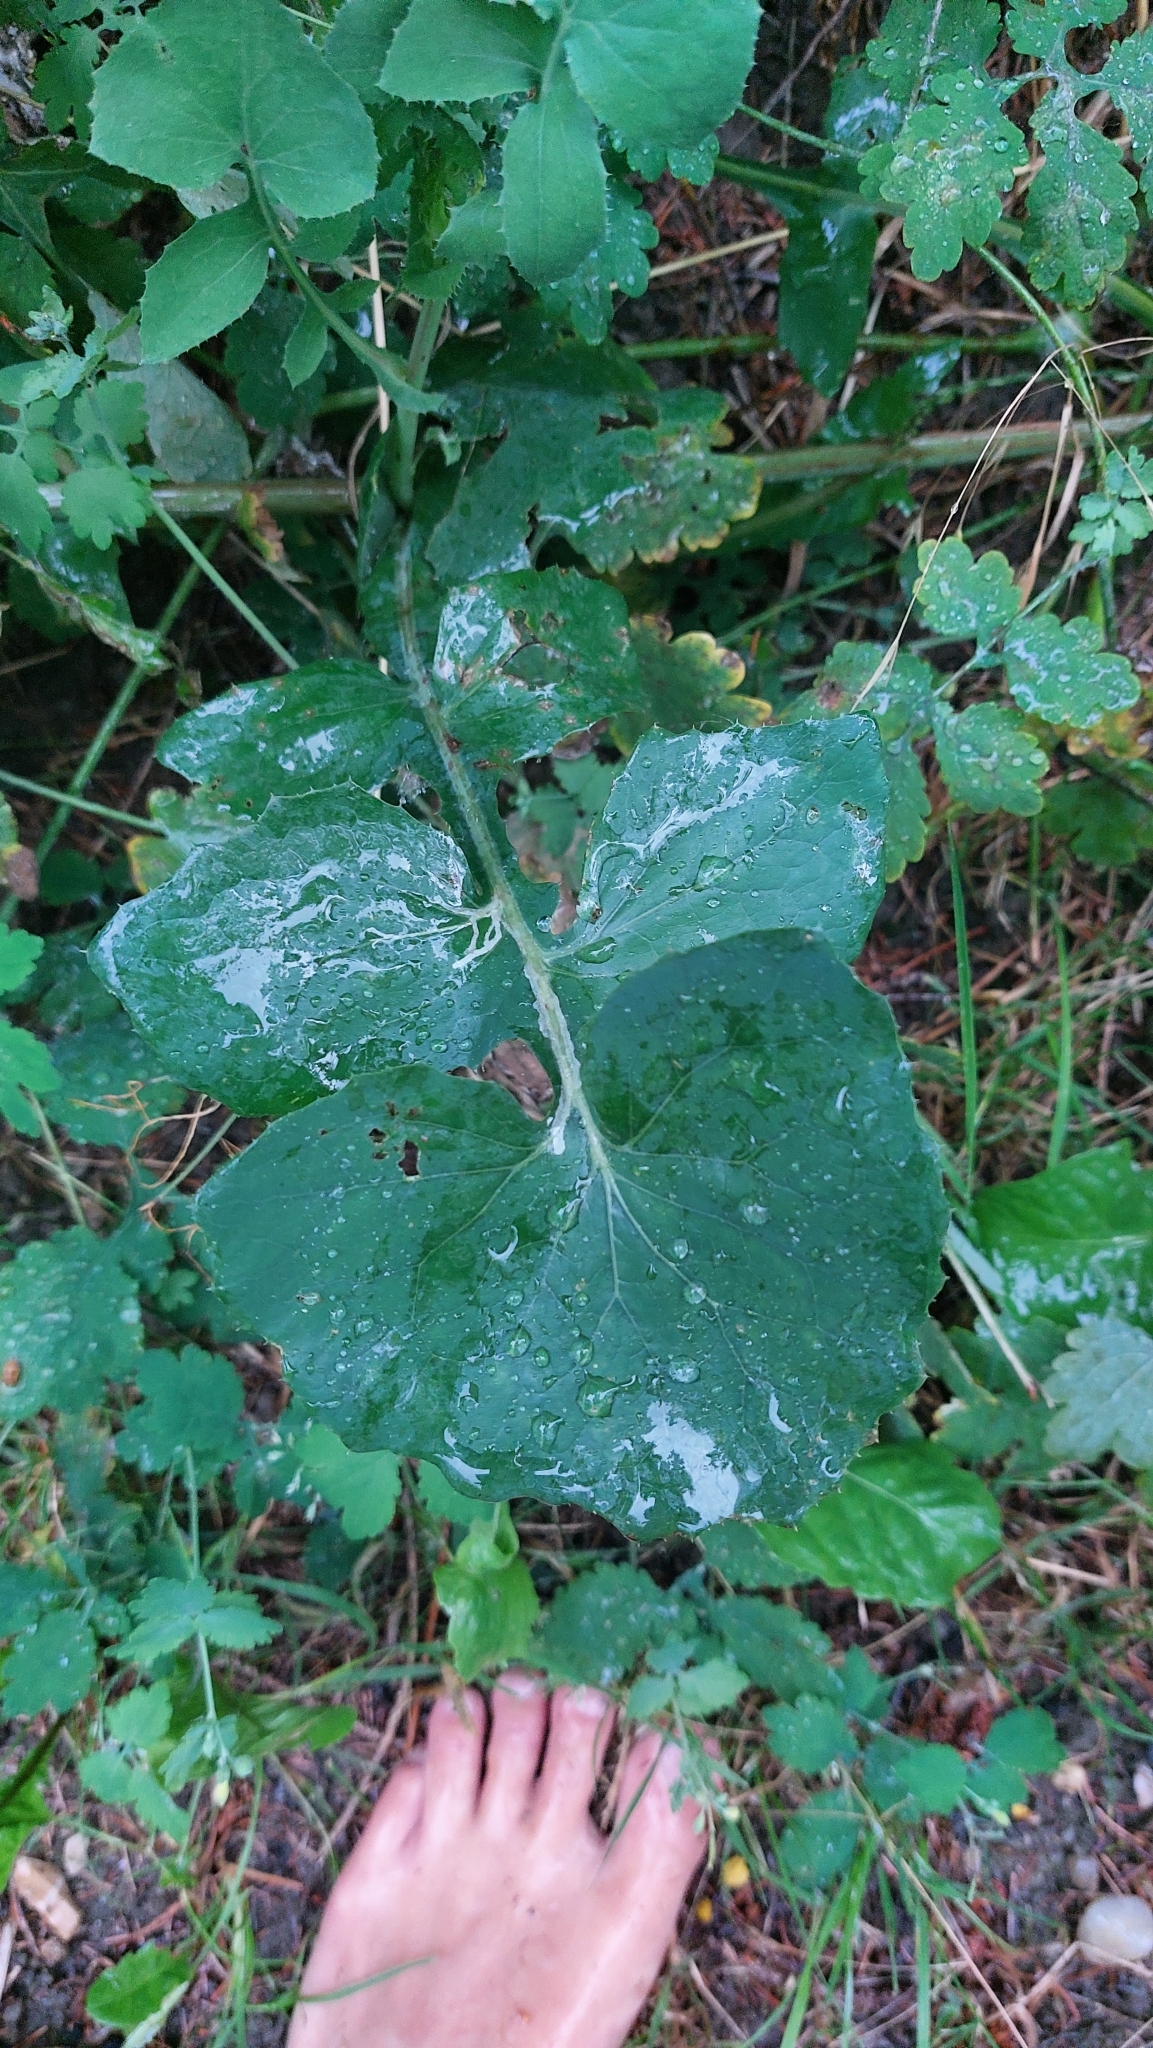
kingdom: Plantae
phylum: Tracheophyta
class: Magnoliopsida
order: Asterales
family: Asteraceae
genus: Sonchus
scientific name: Sonchus oleraceus
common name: Common sowthistle
